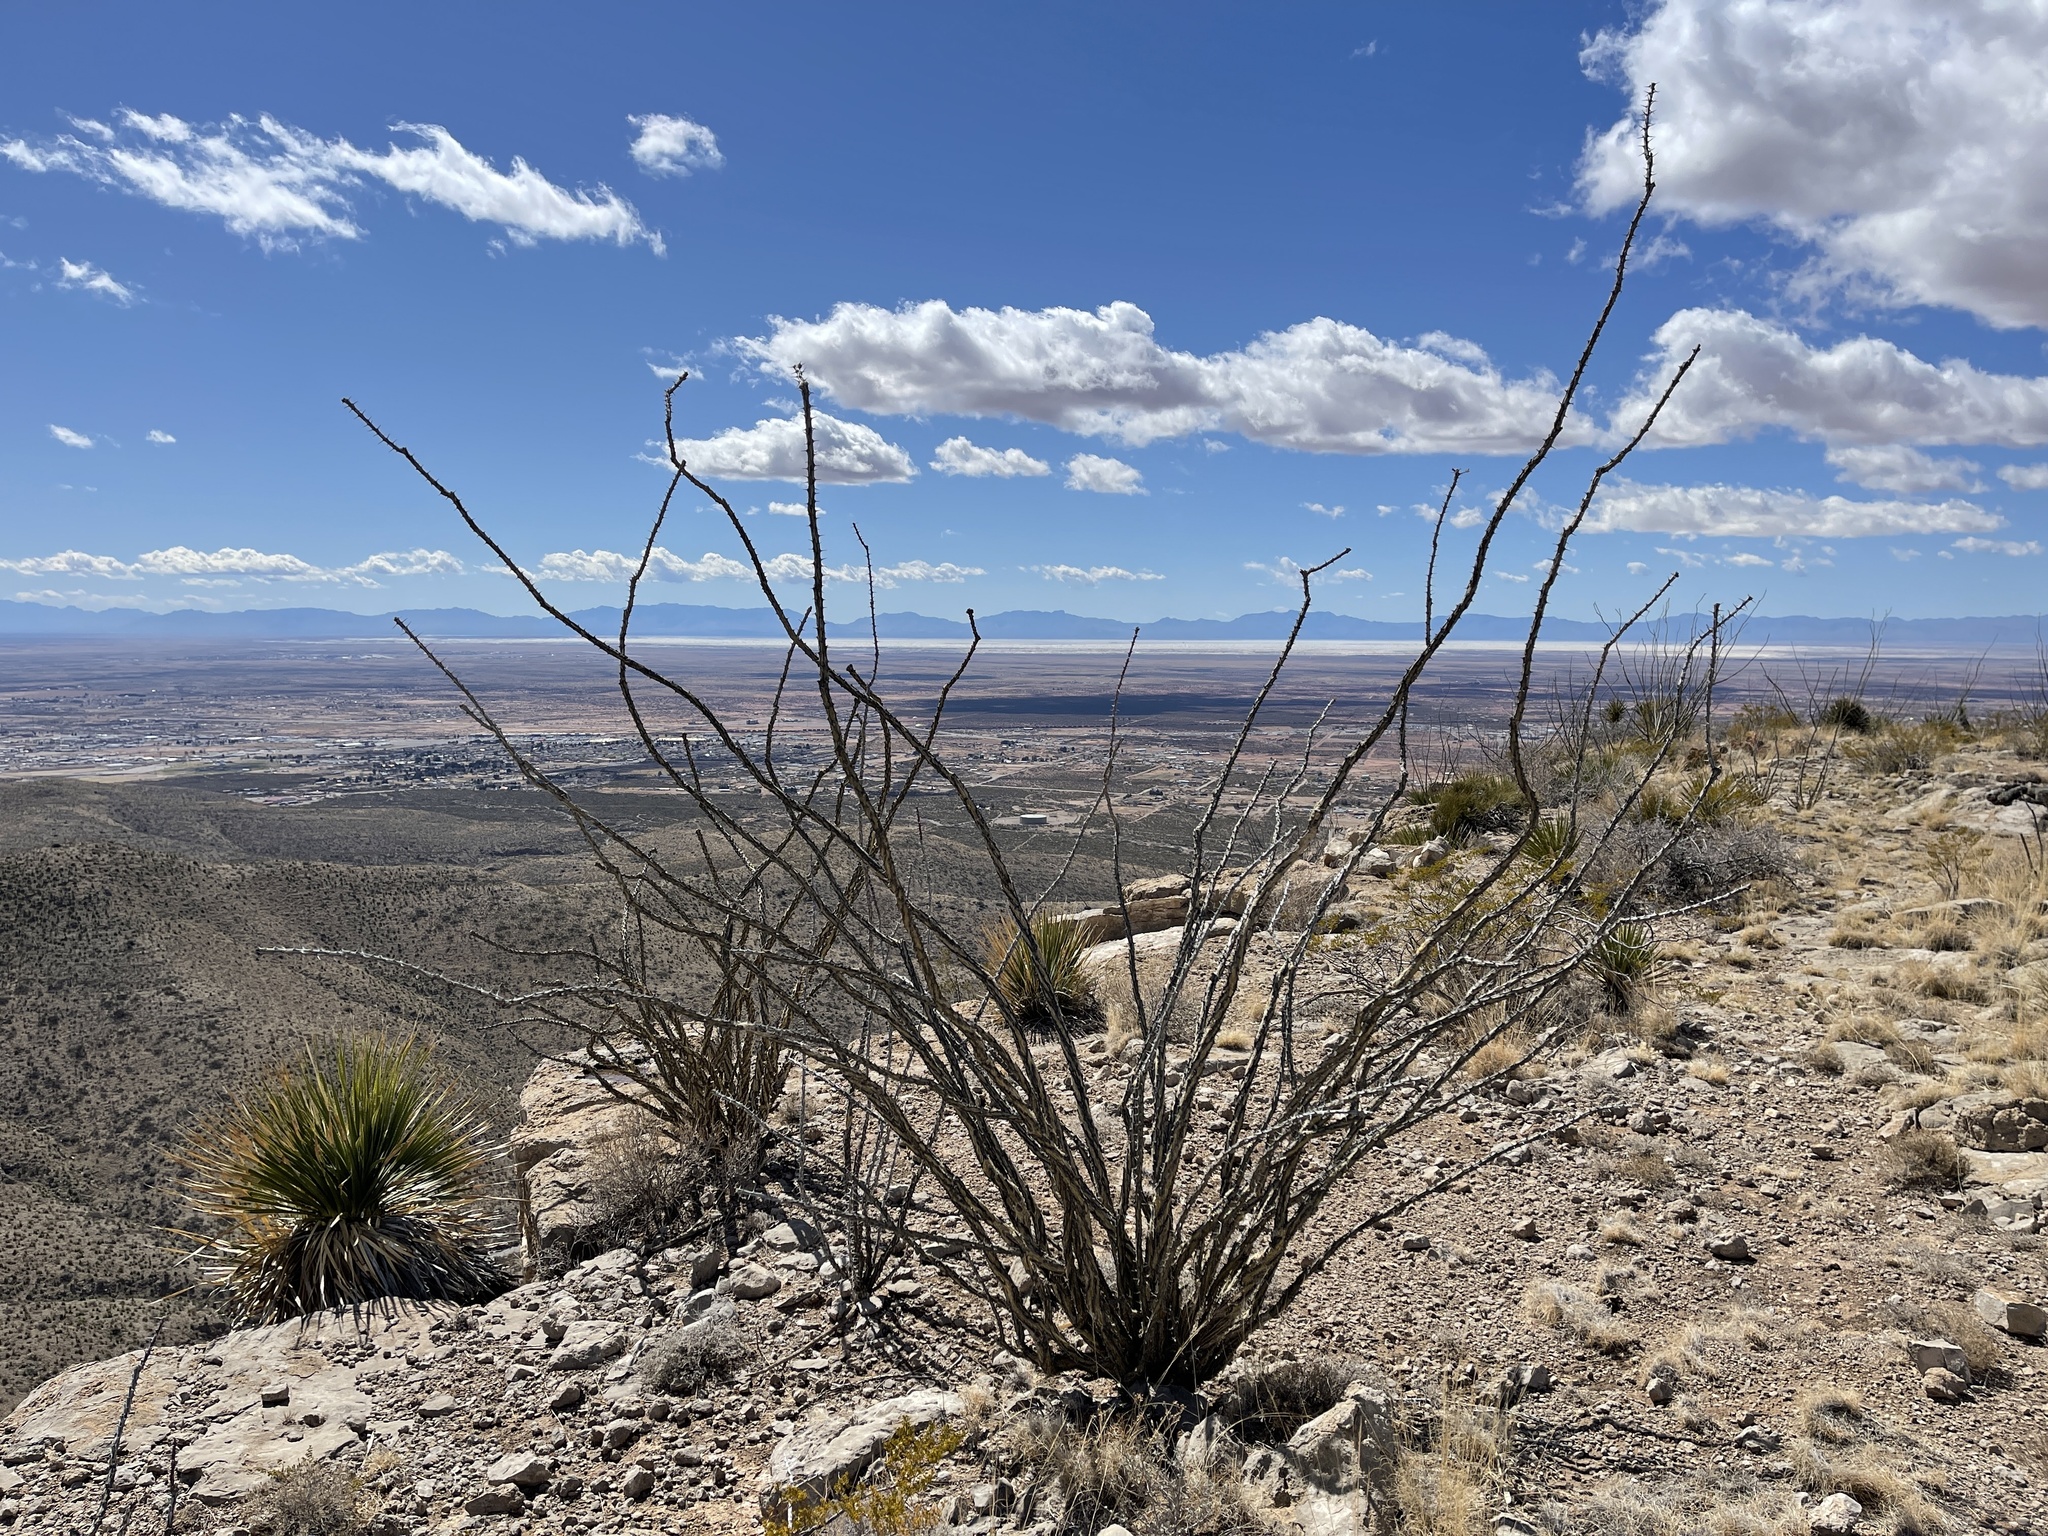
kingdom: Plantae
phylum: Tracheophyta
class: Magnoliopsida
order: Ericales
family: Fouquieriaceae
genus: Fouquieria
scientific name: Fouquieria splendens
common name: Vine-cactus
